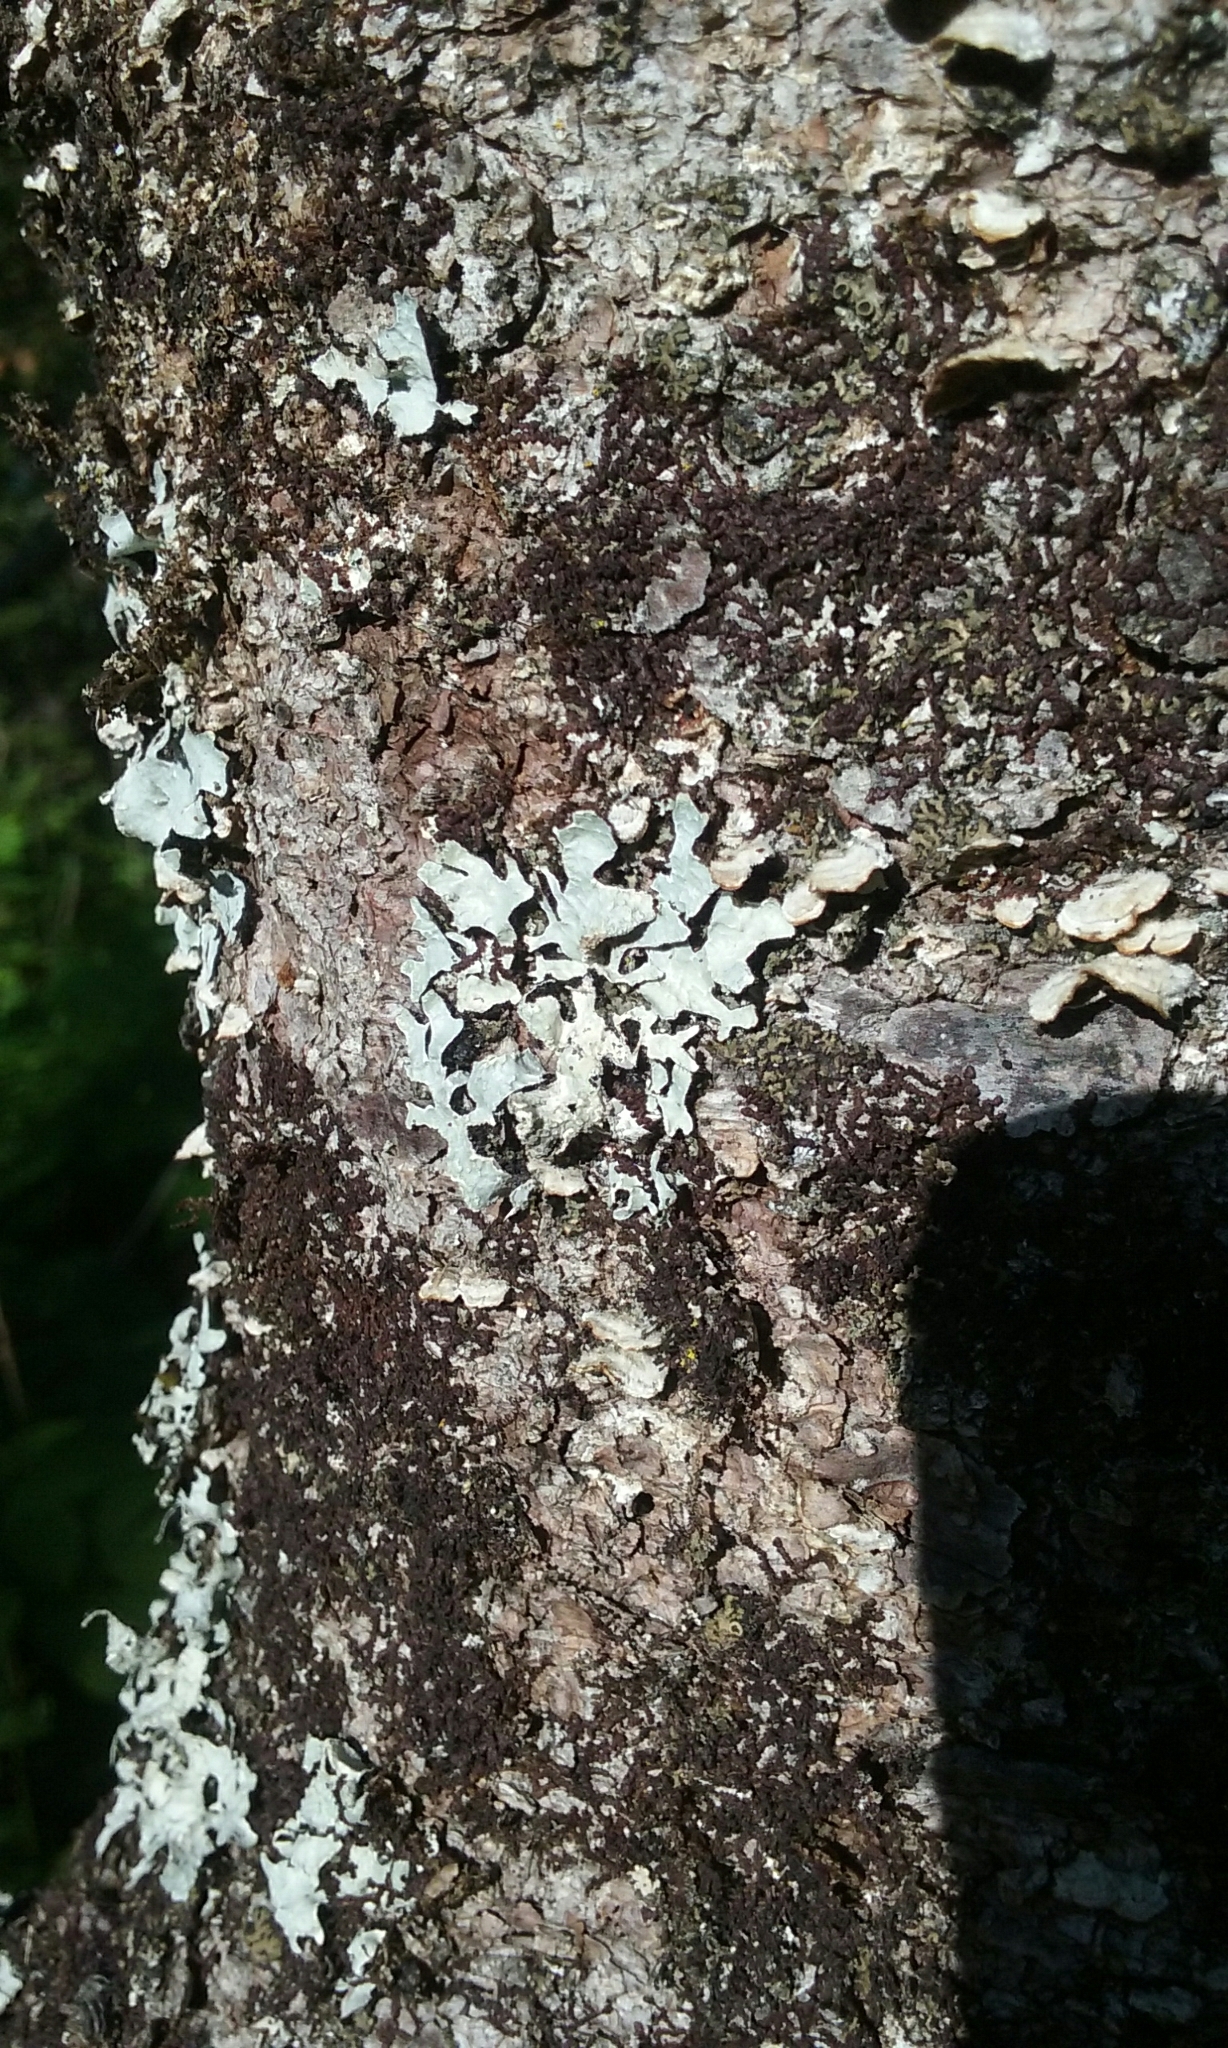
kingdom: Fungi
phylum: Ascomycota
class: Lecanoromycetes
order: Lecanorales
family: Parmeliaceae
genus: Parmelia
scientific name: Parmelia sulcata
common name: Netted shield lichen
